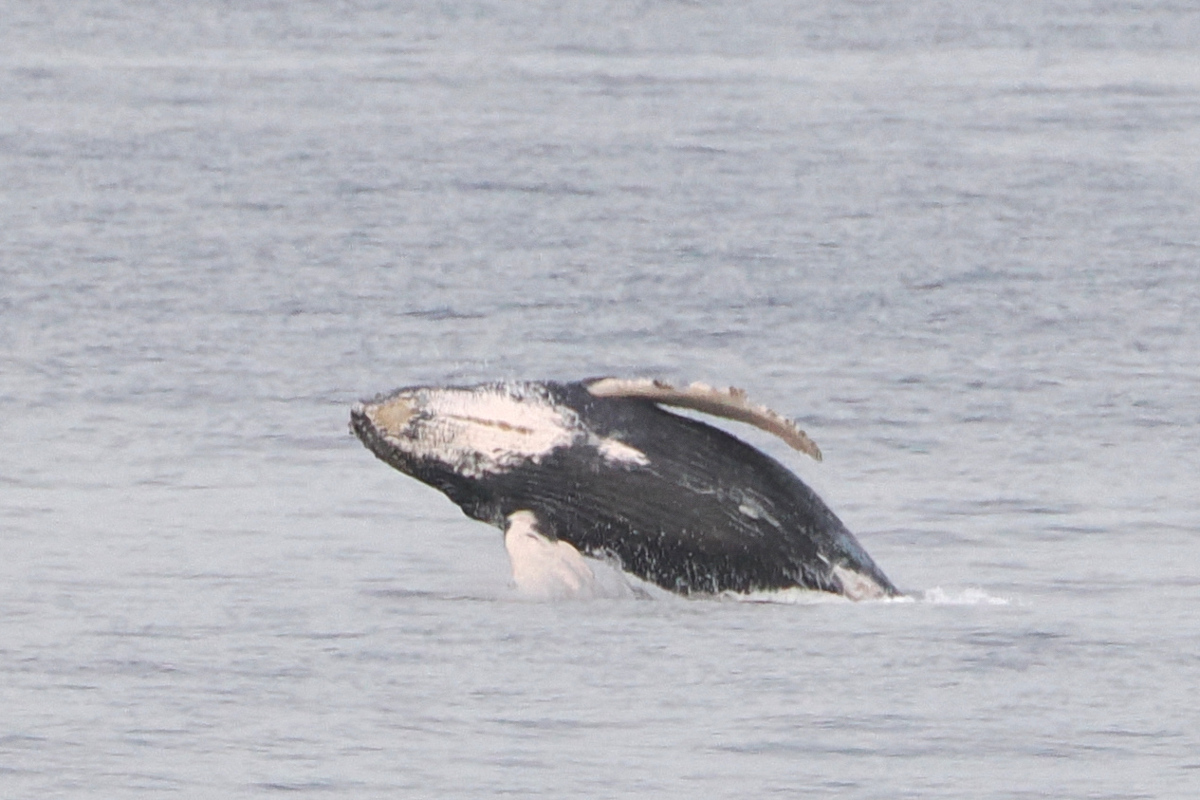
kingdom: Animalia
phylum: Chordata
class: Mammalia
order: Cetacea
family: Balaenopteridae
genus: Megaptera
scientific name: Megaptera novaeangliae
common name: Humpback whale
